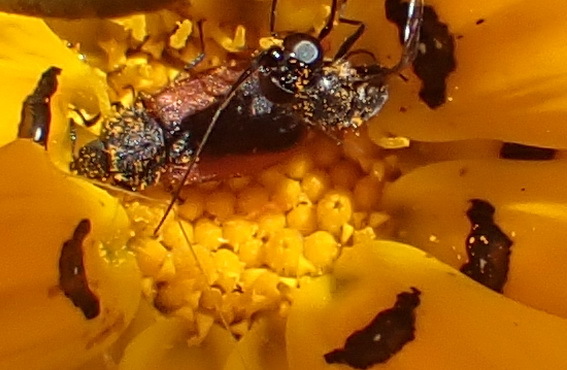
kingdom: Animalia
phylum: Arthropoda
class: Insecta
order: Coleoptera
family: Melyridae
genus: Melyris
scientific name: Melyris
